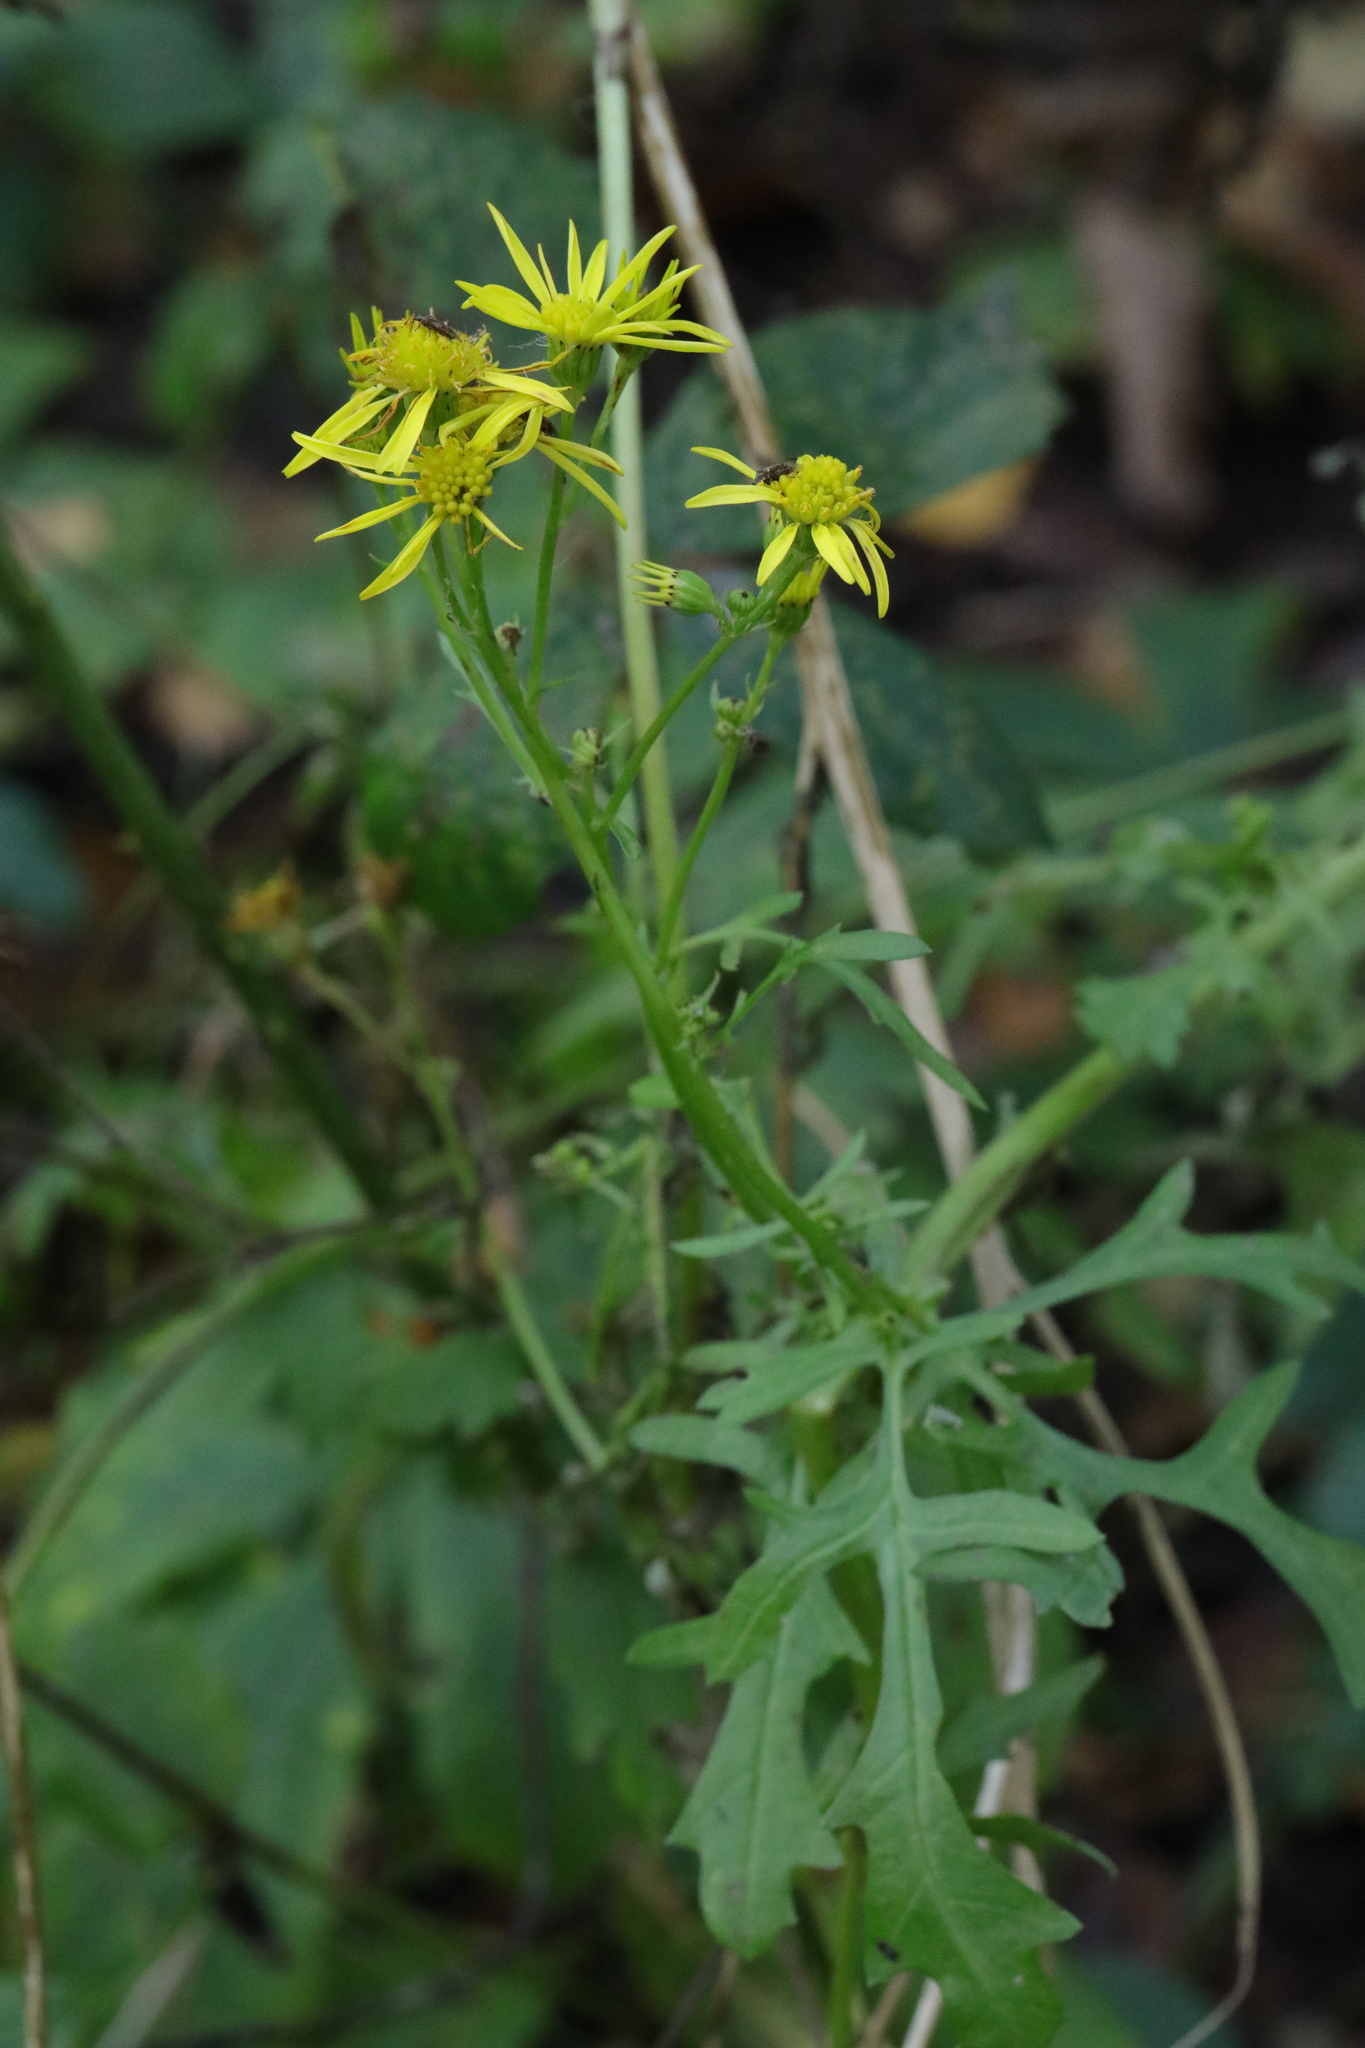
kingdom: Plantae
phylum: Tracheophyta
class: Magnoliopsida
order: Asterales
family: Asteraceae
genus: Jacobaea
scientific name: Jacobaea vulgaris
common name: Stinking willie
